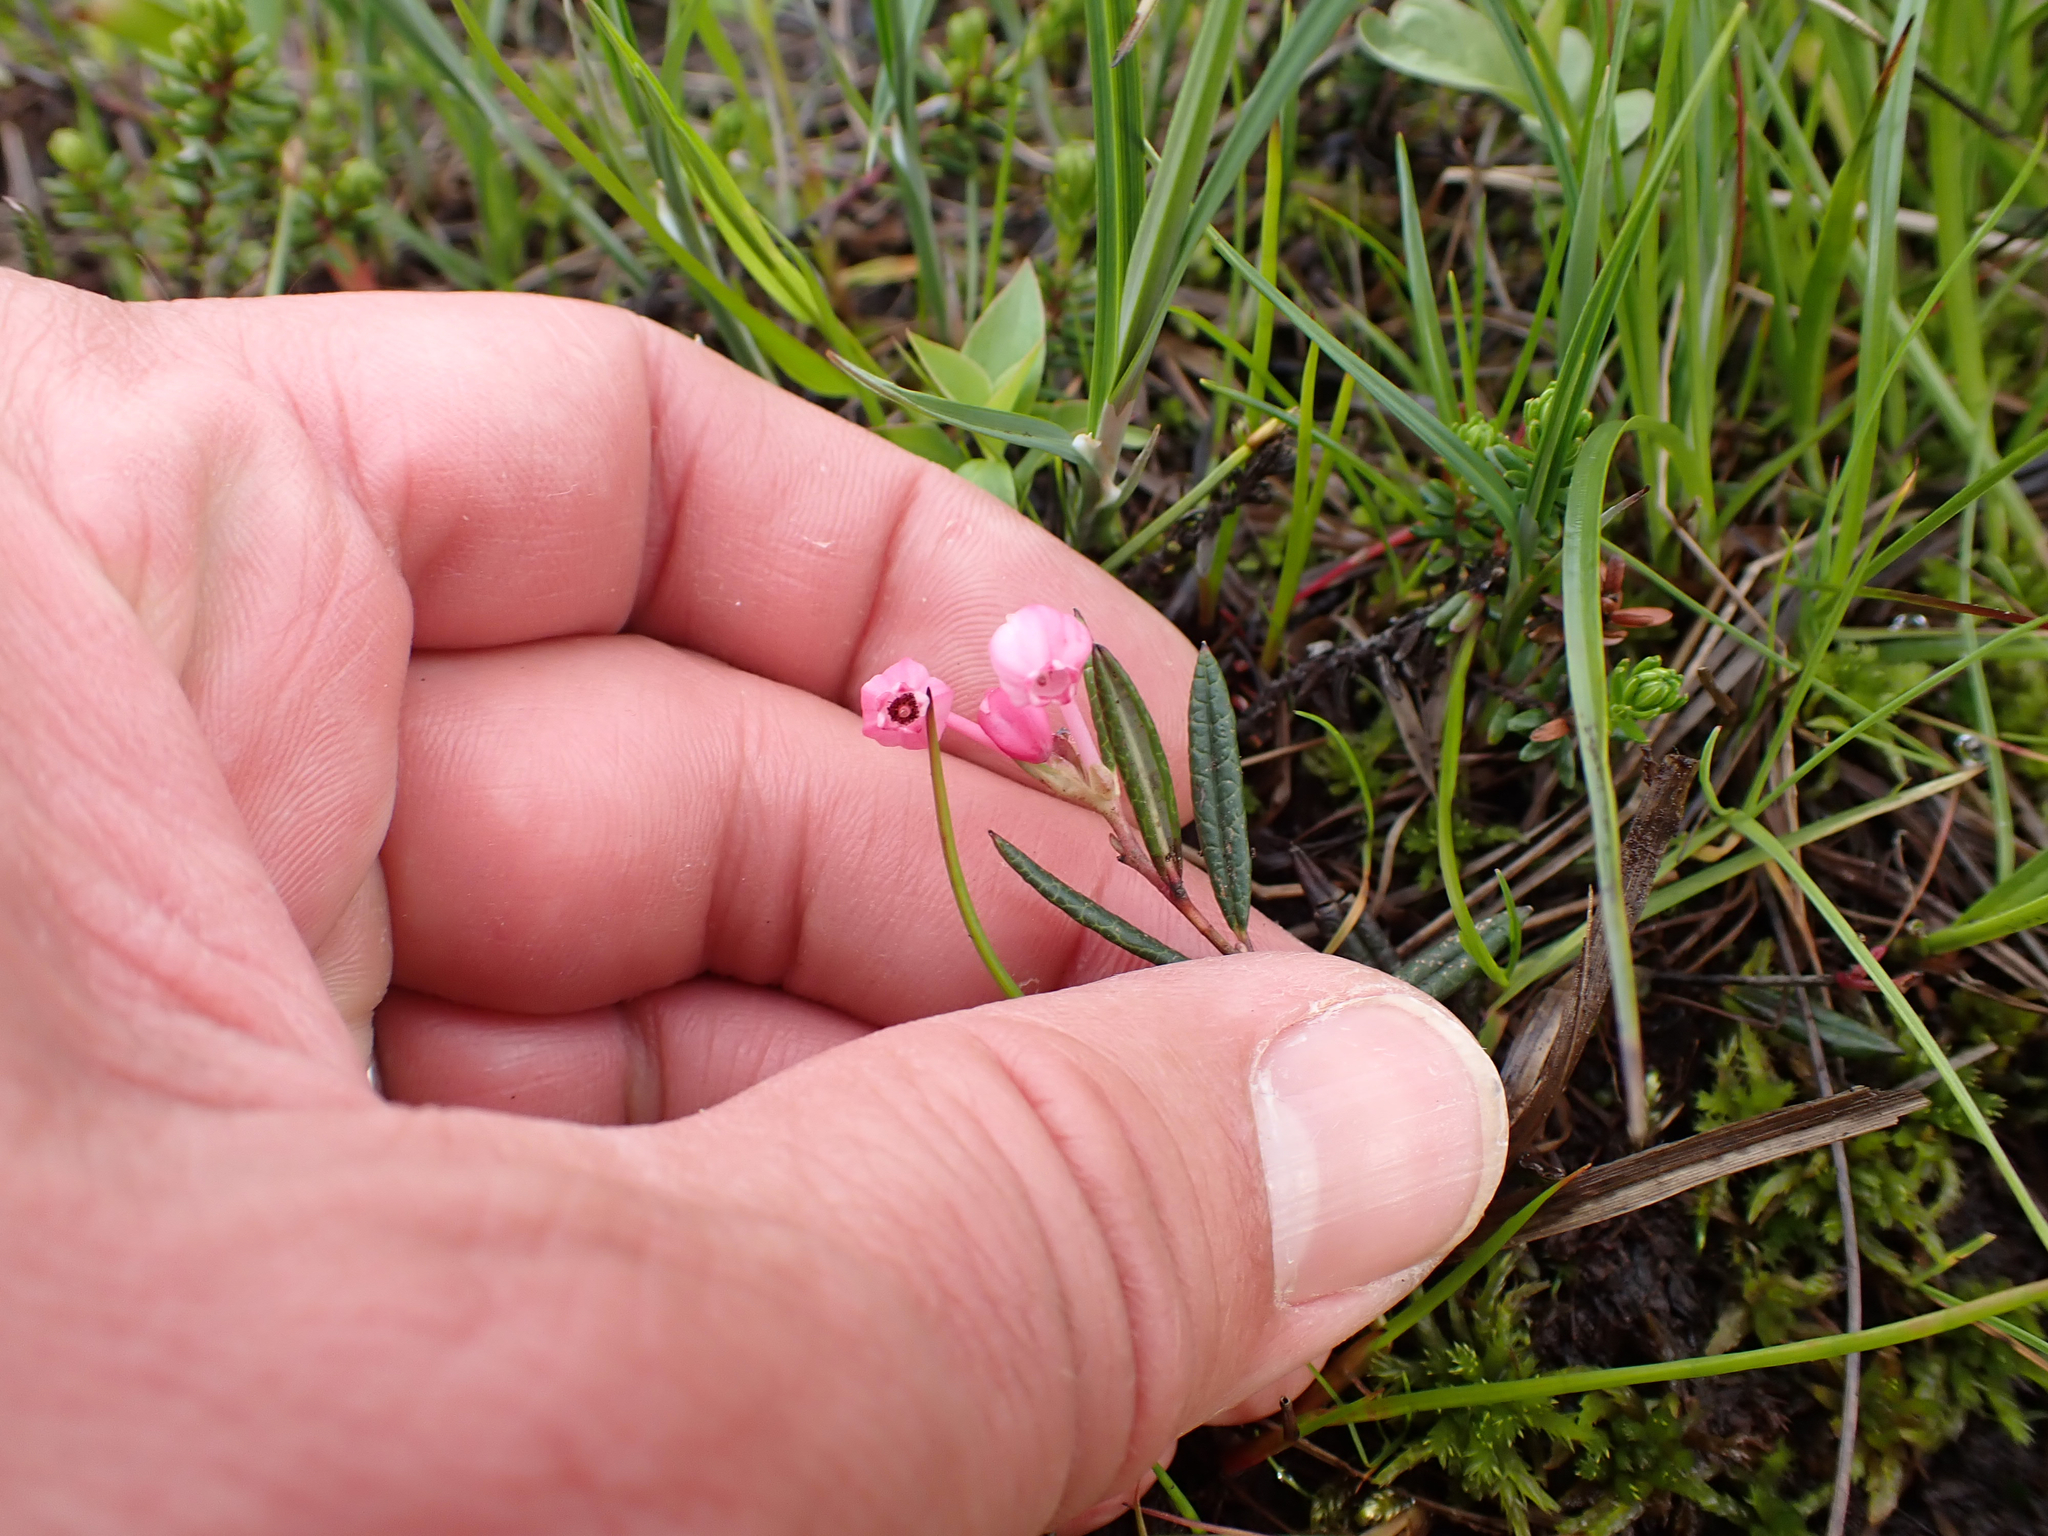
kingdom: Plantae
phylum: Tracheophyta
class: Magnoliopsida
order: Ericales
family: Ericaceae
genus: Andromeda
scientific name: Andromeda polifolia
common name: Bog-rosemary
